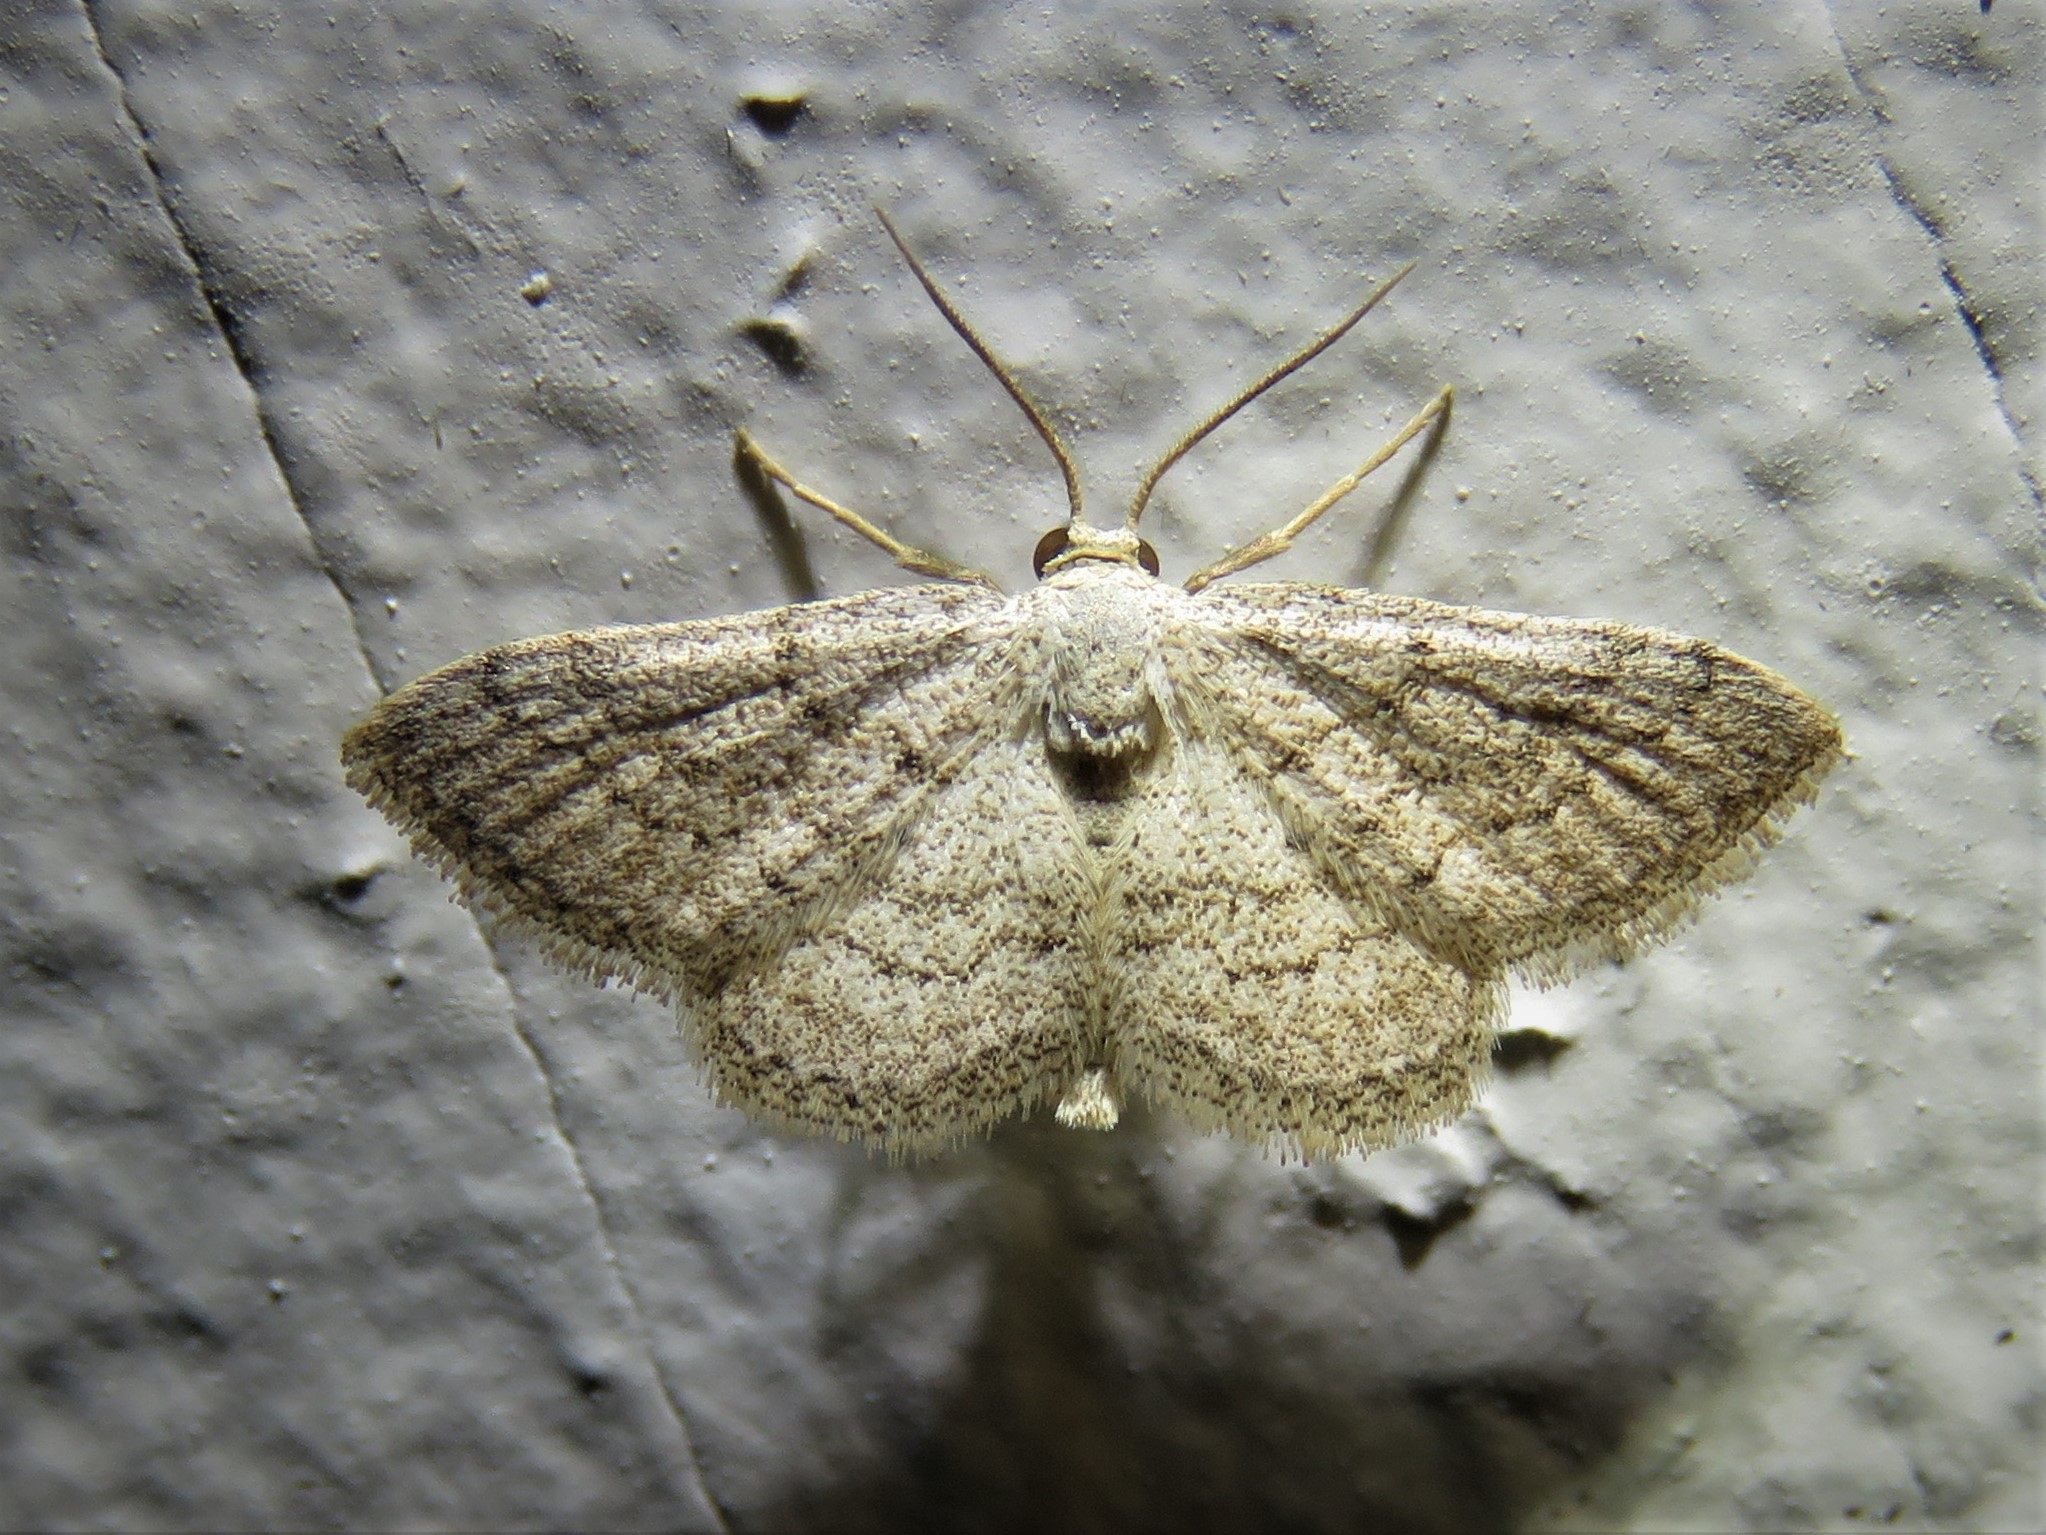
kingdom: Animalia
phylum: Arthropoda
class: Insecta
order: Lepidoptera
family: Geometridae
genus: Lobocleta
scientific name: Lobocleta ossularia
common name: Drab brown wave
